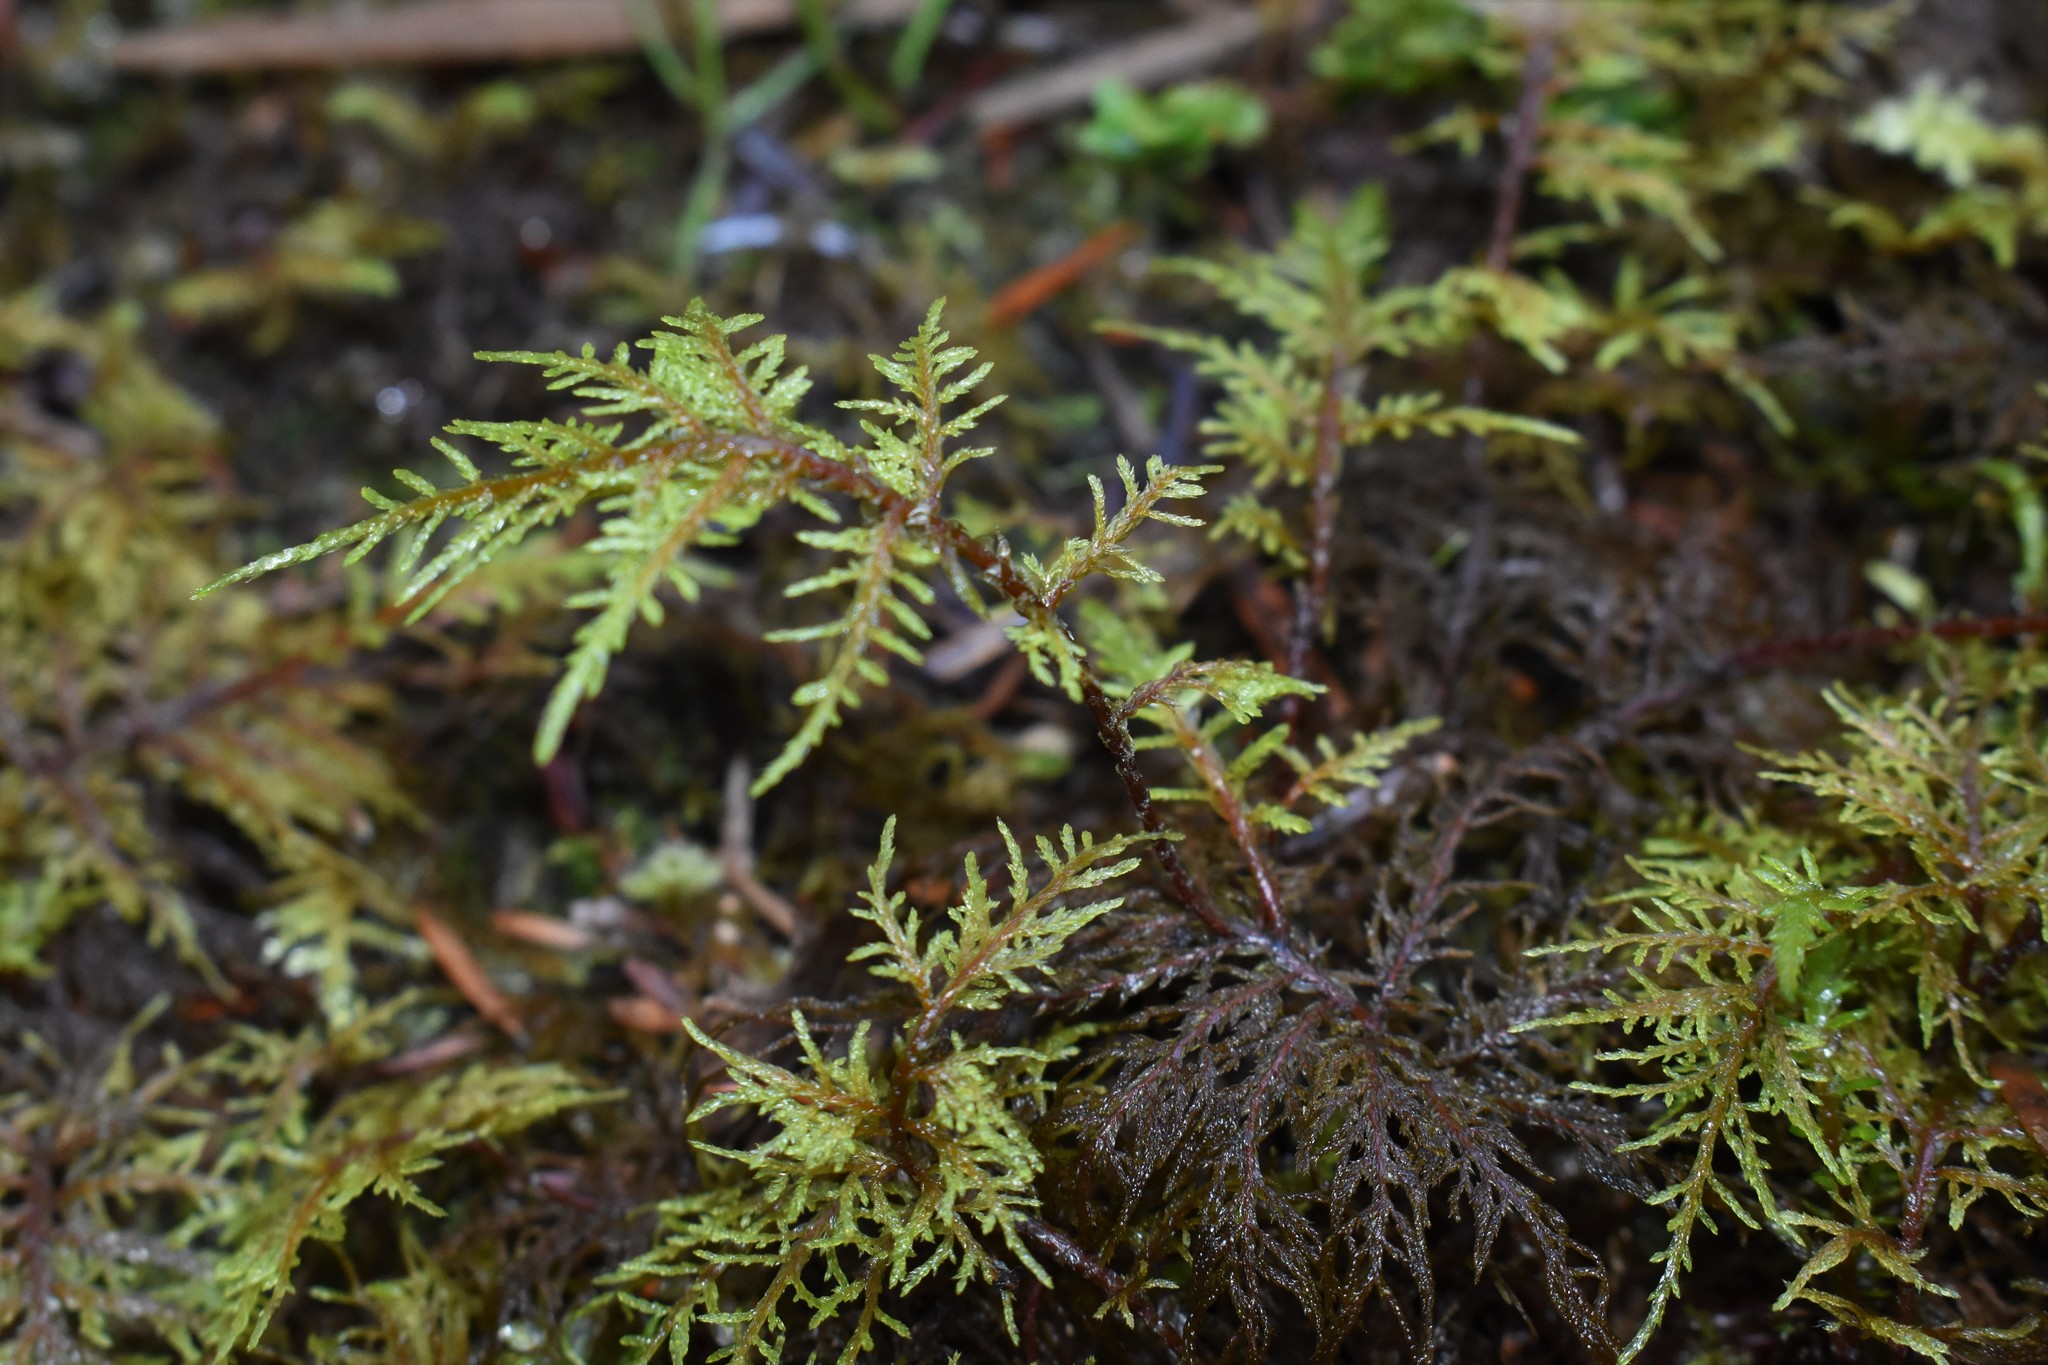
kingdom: Plantae
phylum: Bryophyta
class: Bryopsida
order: Hypnales
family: Hylocomiaceae
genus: Hylocomium
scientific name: Hylocomium splendens
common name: Stairstep moss
